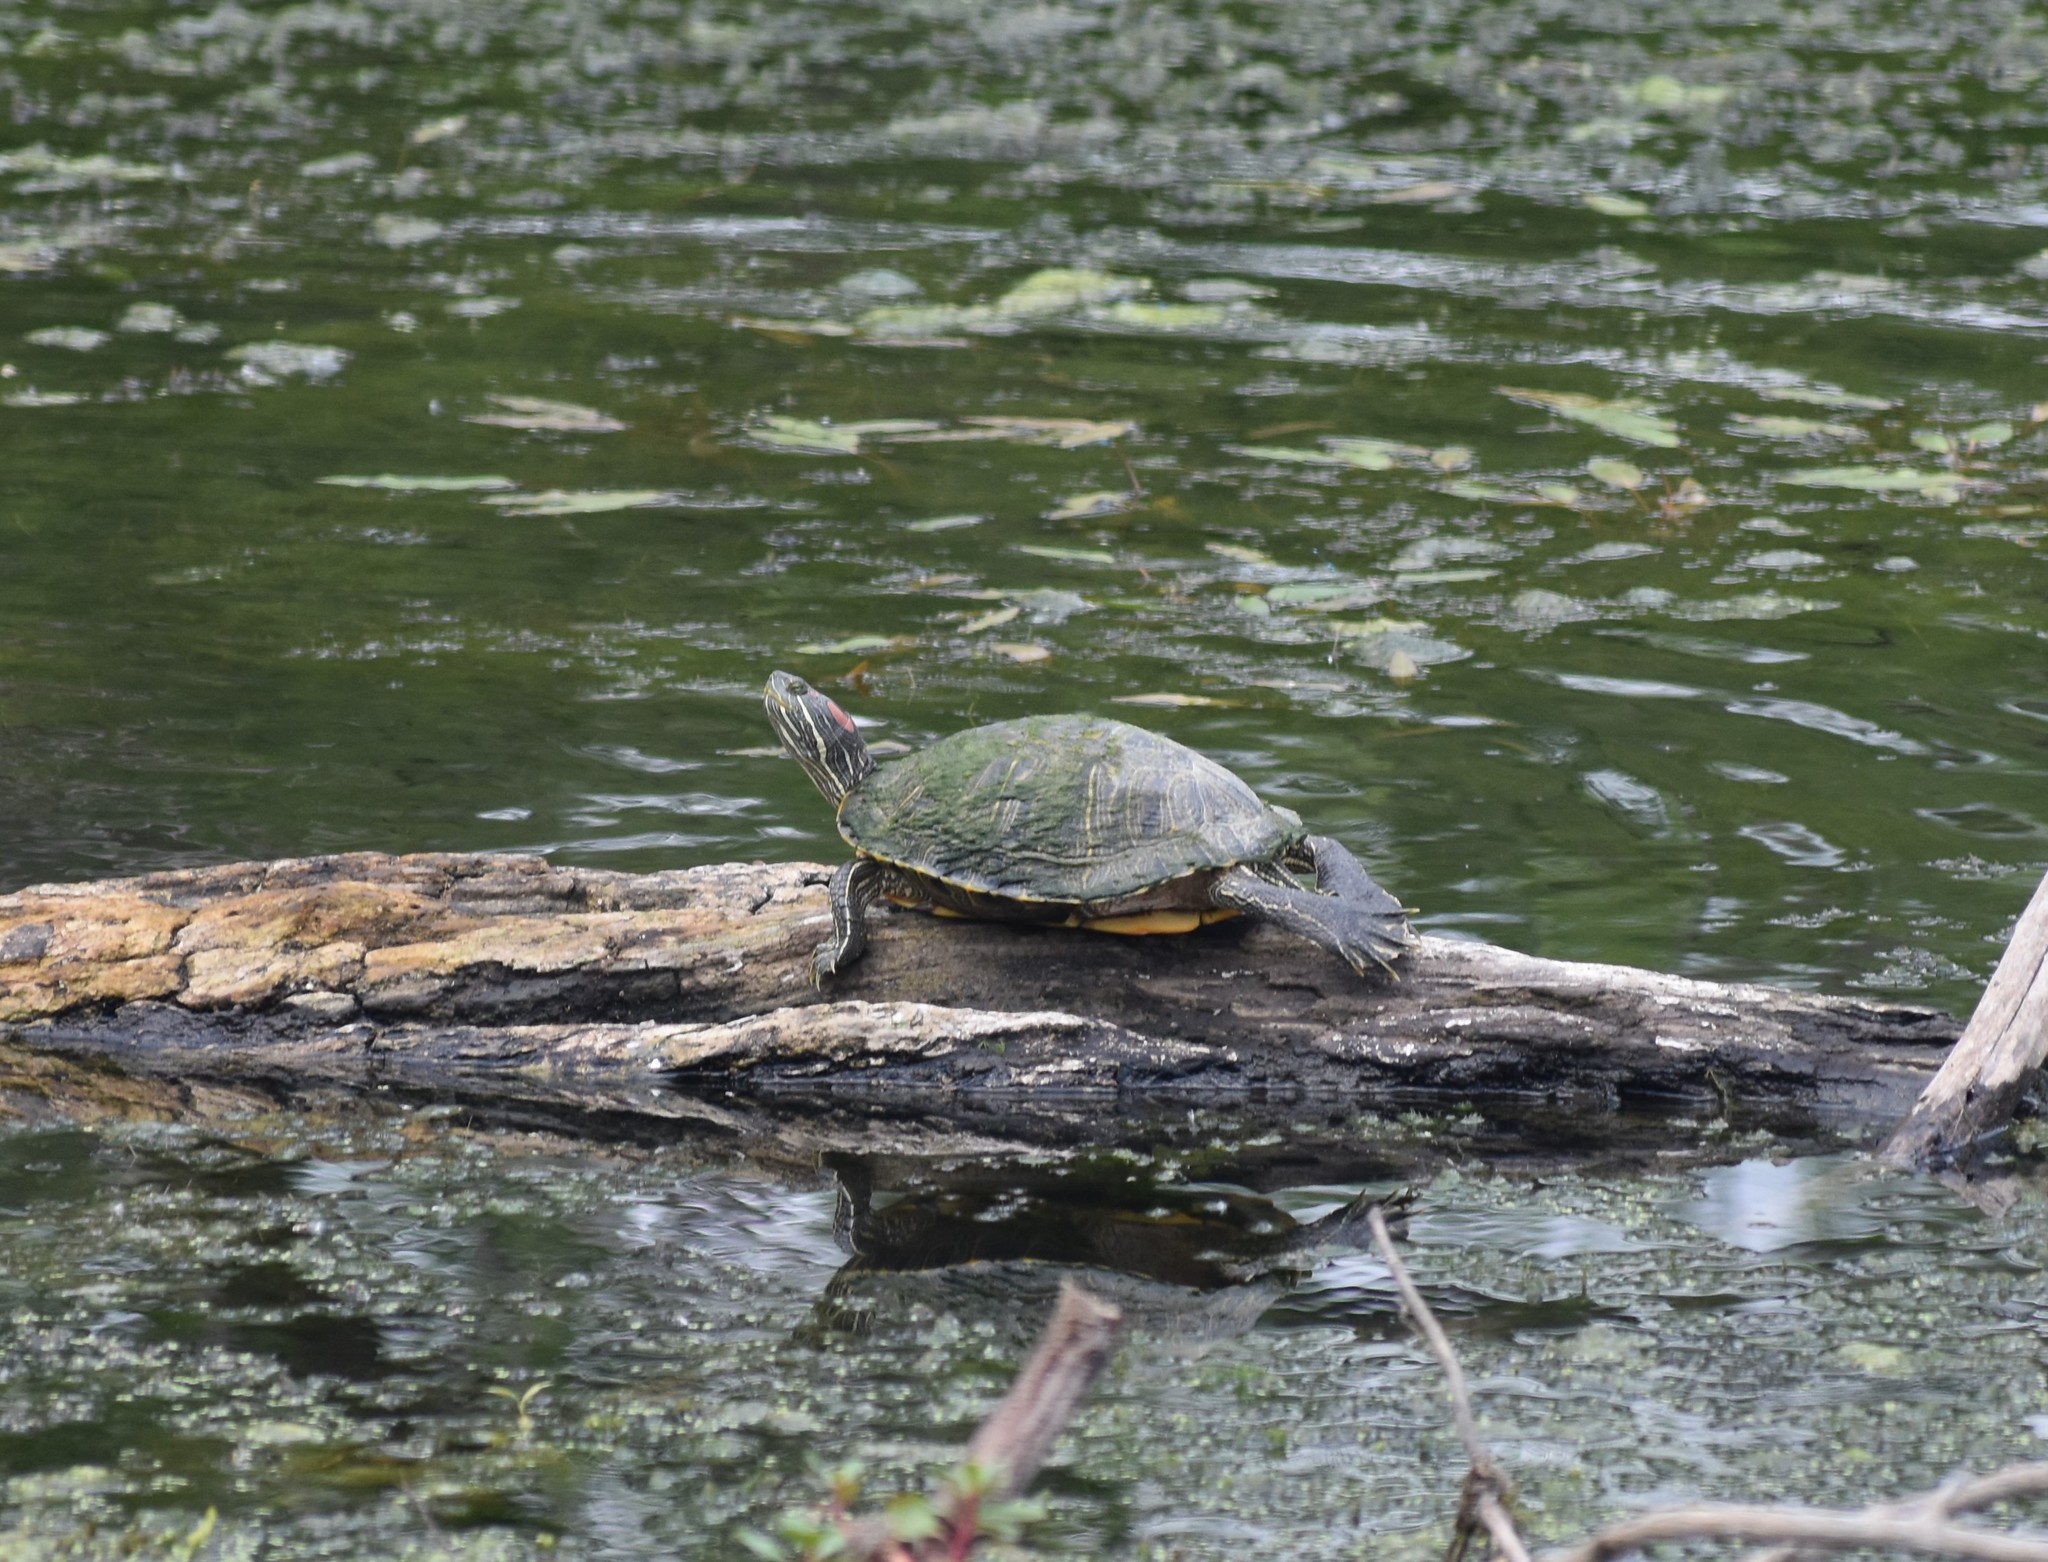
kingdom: Animalia
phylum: Chordata
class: Testudines
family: Emydidae
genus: Trachemys
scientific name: Trachemys scripta
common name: Slider
